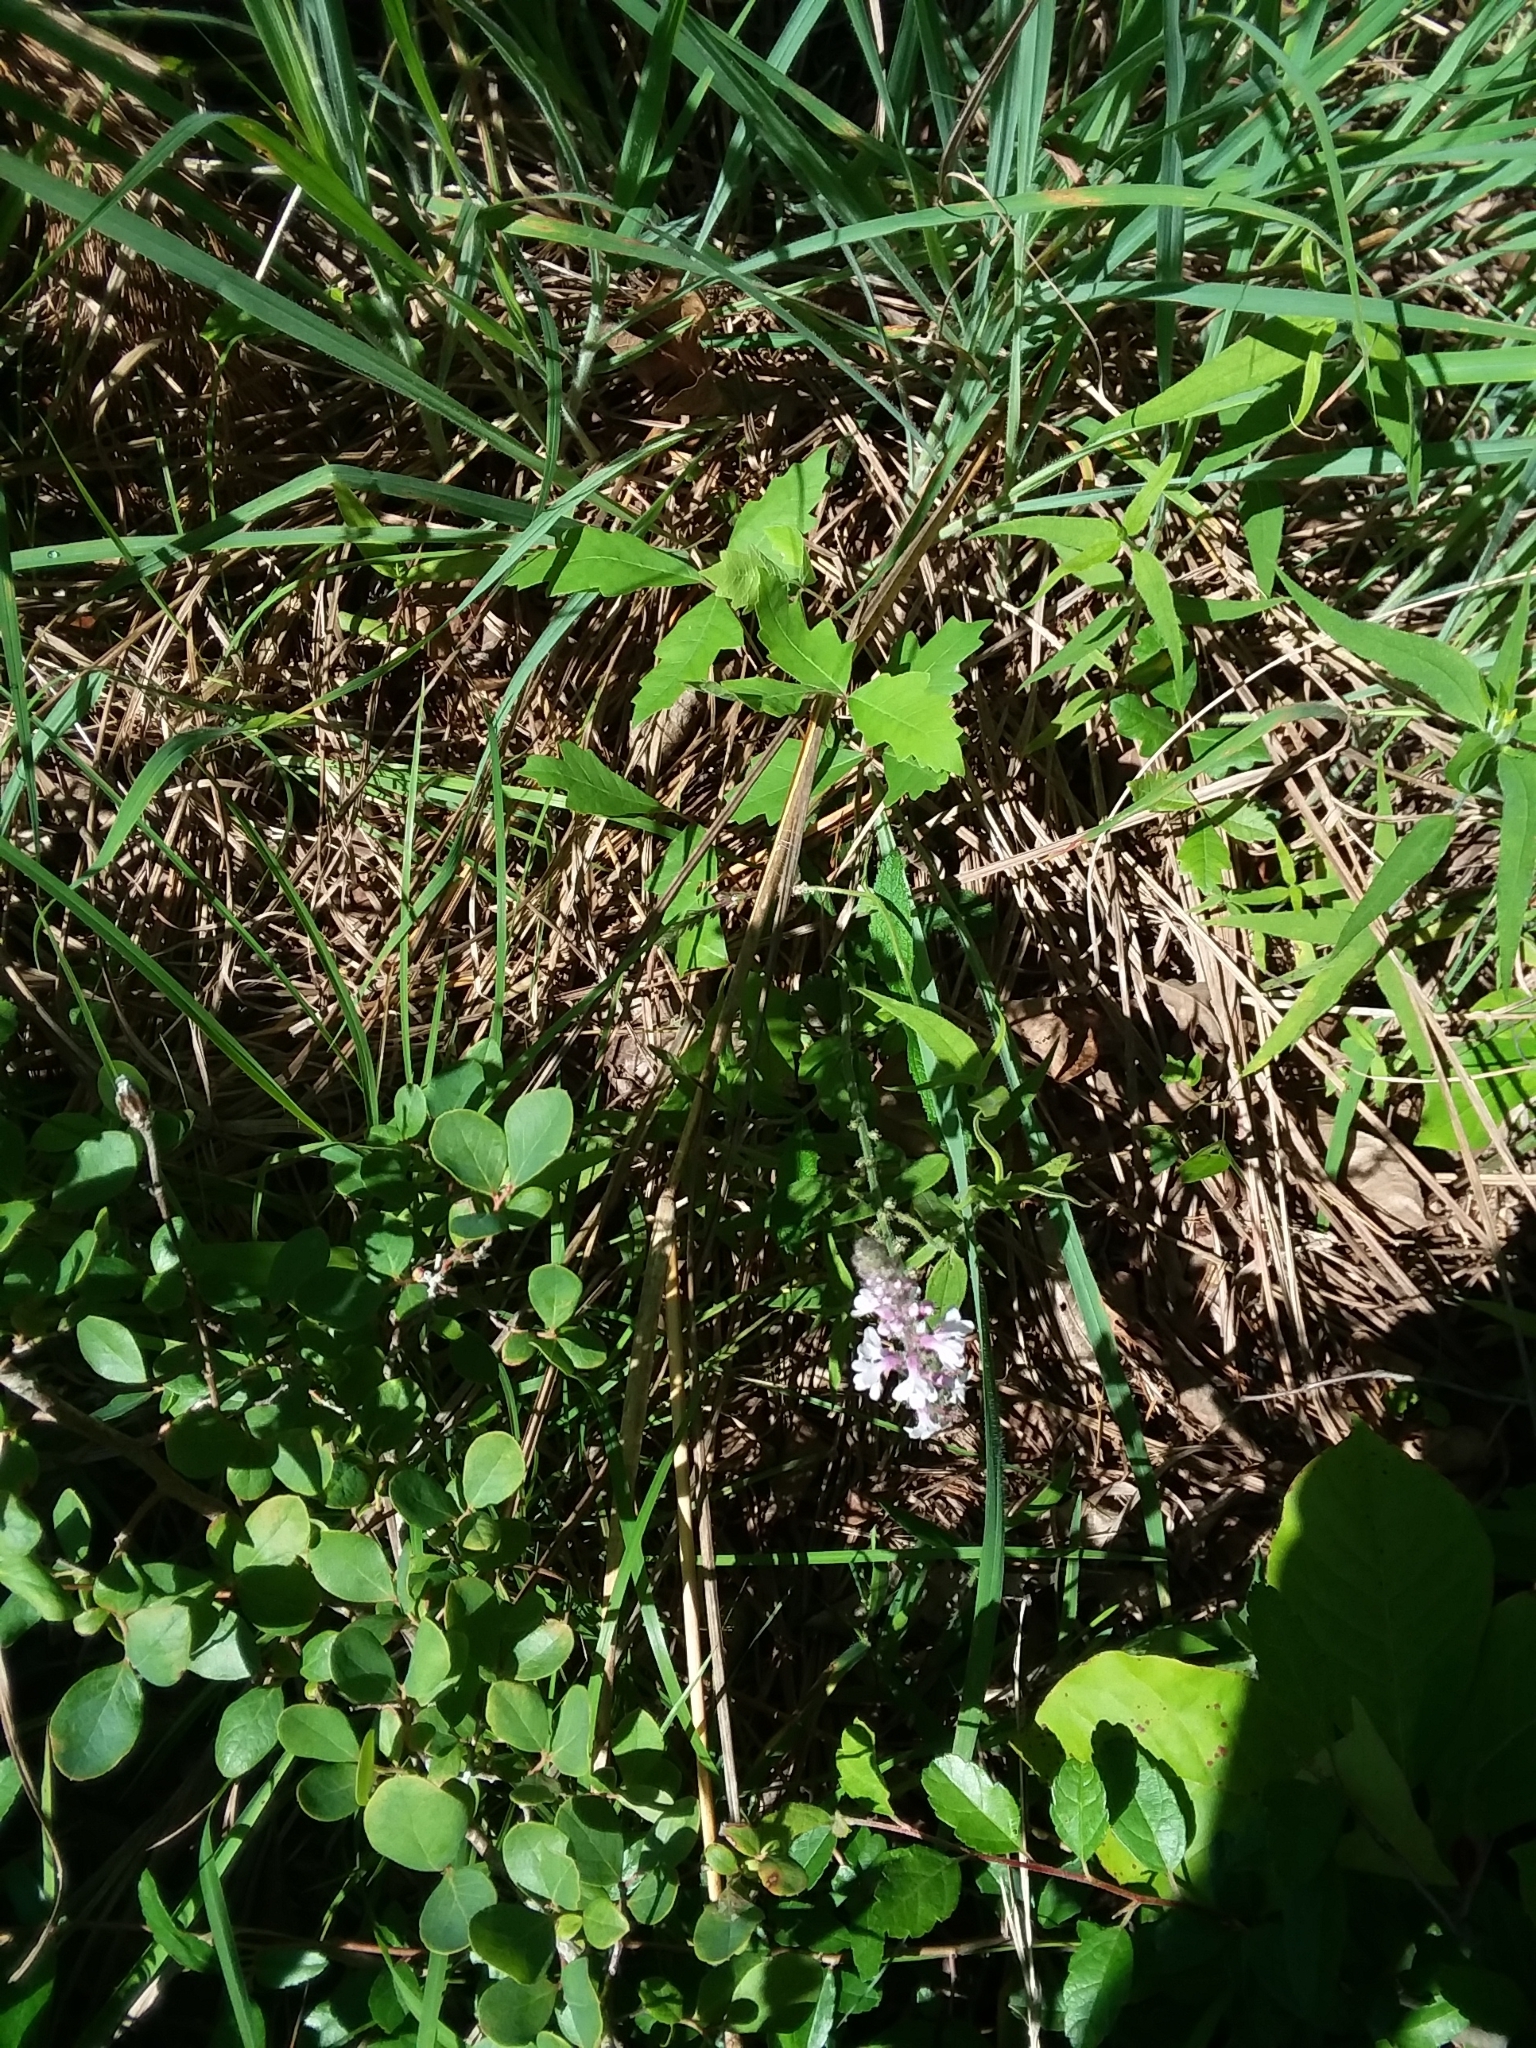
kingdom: Plantae
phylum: Tracheophyta
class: Magnoliopsida
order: Lamiales
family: Verbenaceae
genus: Verbena
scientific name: Verbena carnea
